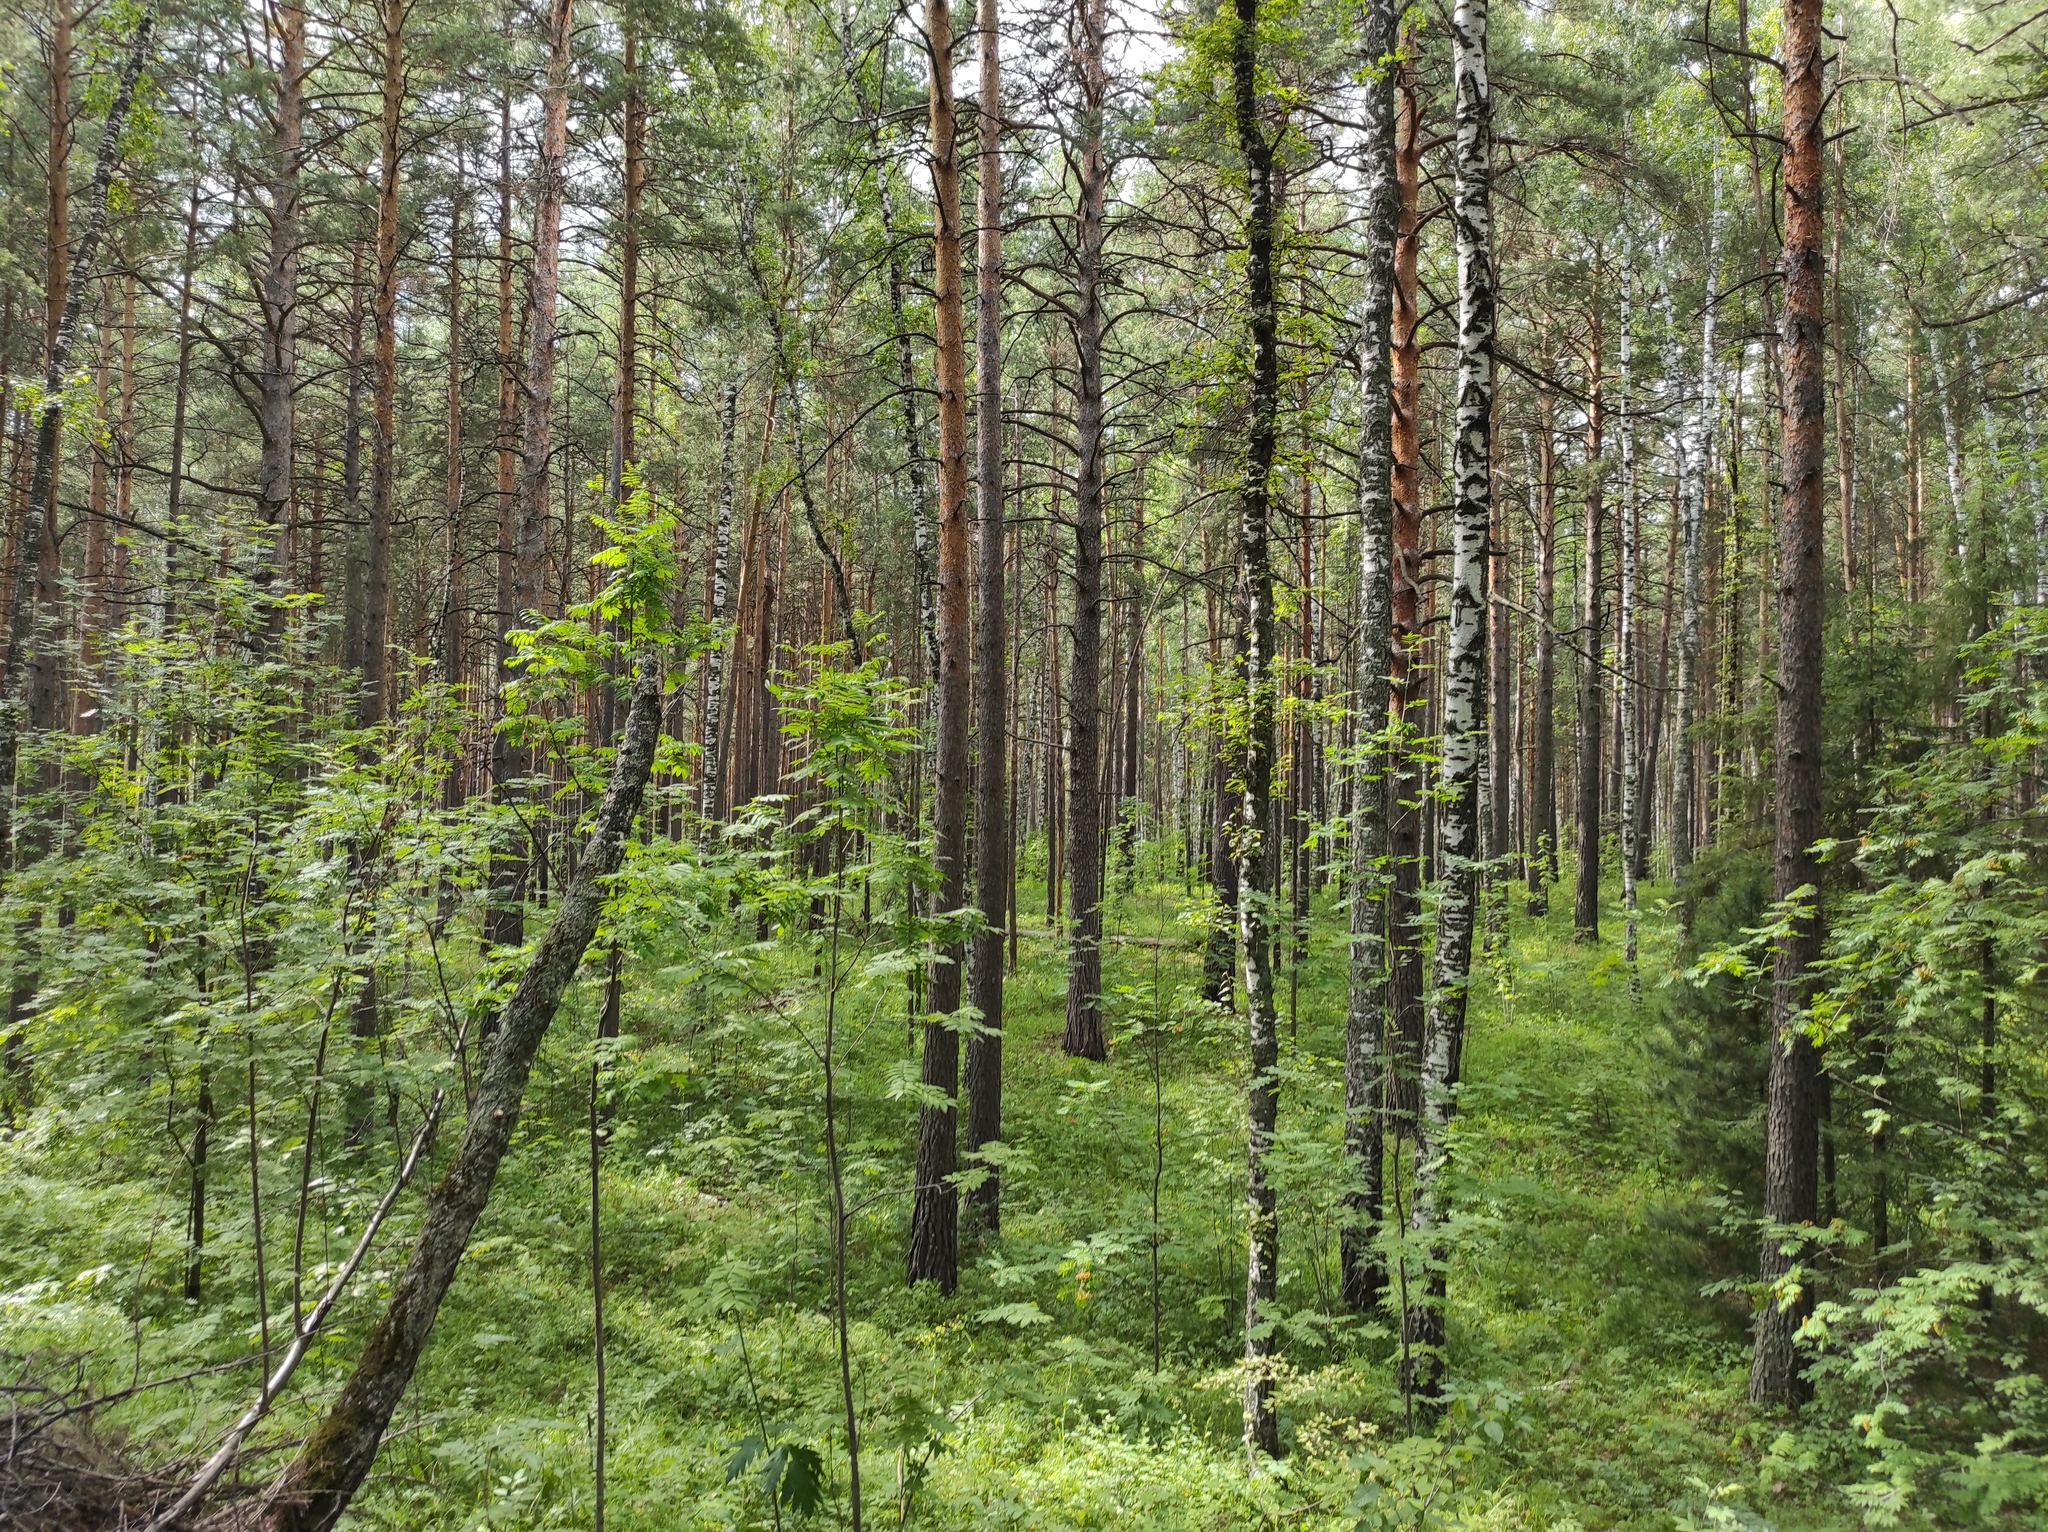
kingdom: Plantae
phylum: Tracheophyta
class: Pinopsida
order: Pinales
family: Pinaceae
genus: Pinus
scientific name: Pinus sylvestris
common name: Scots pine
